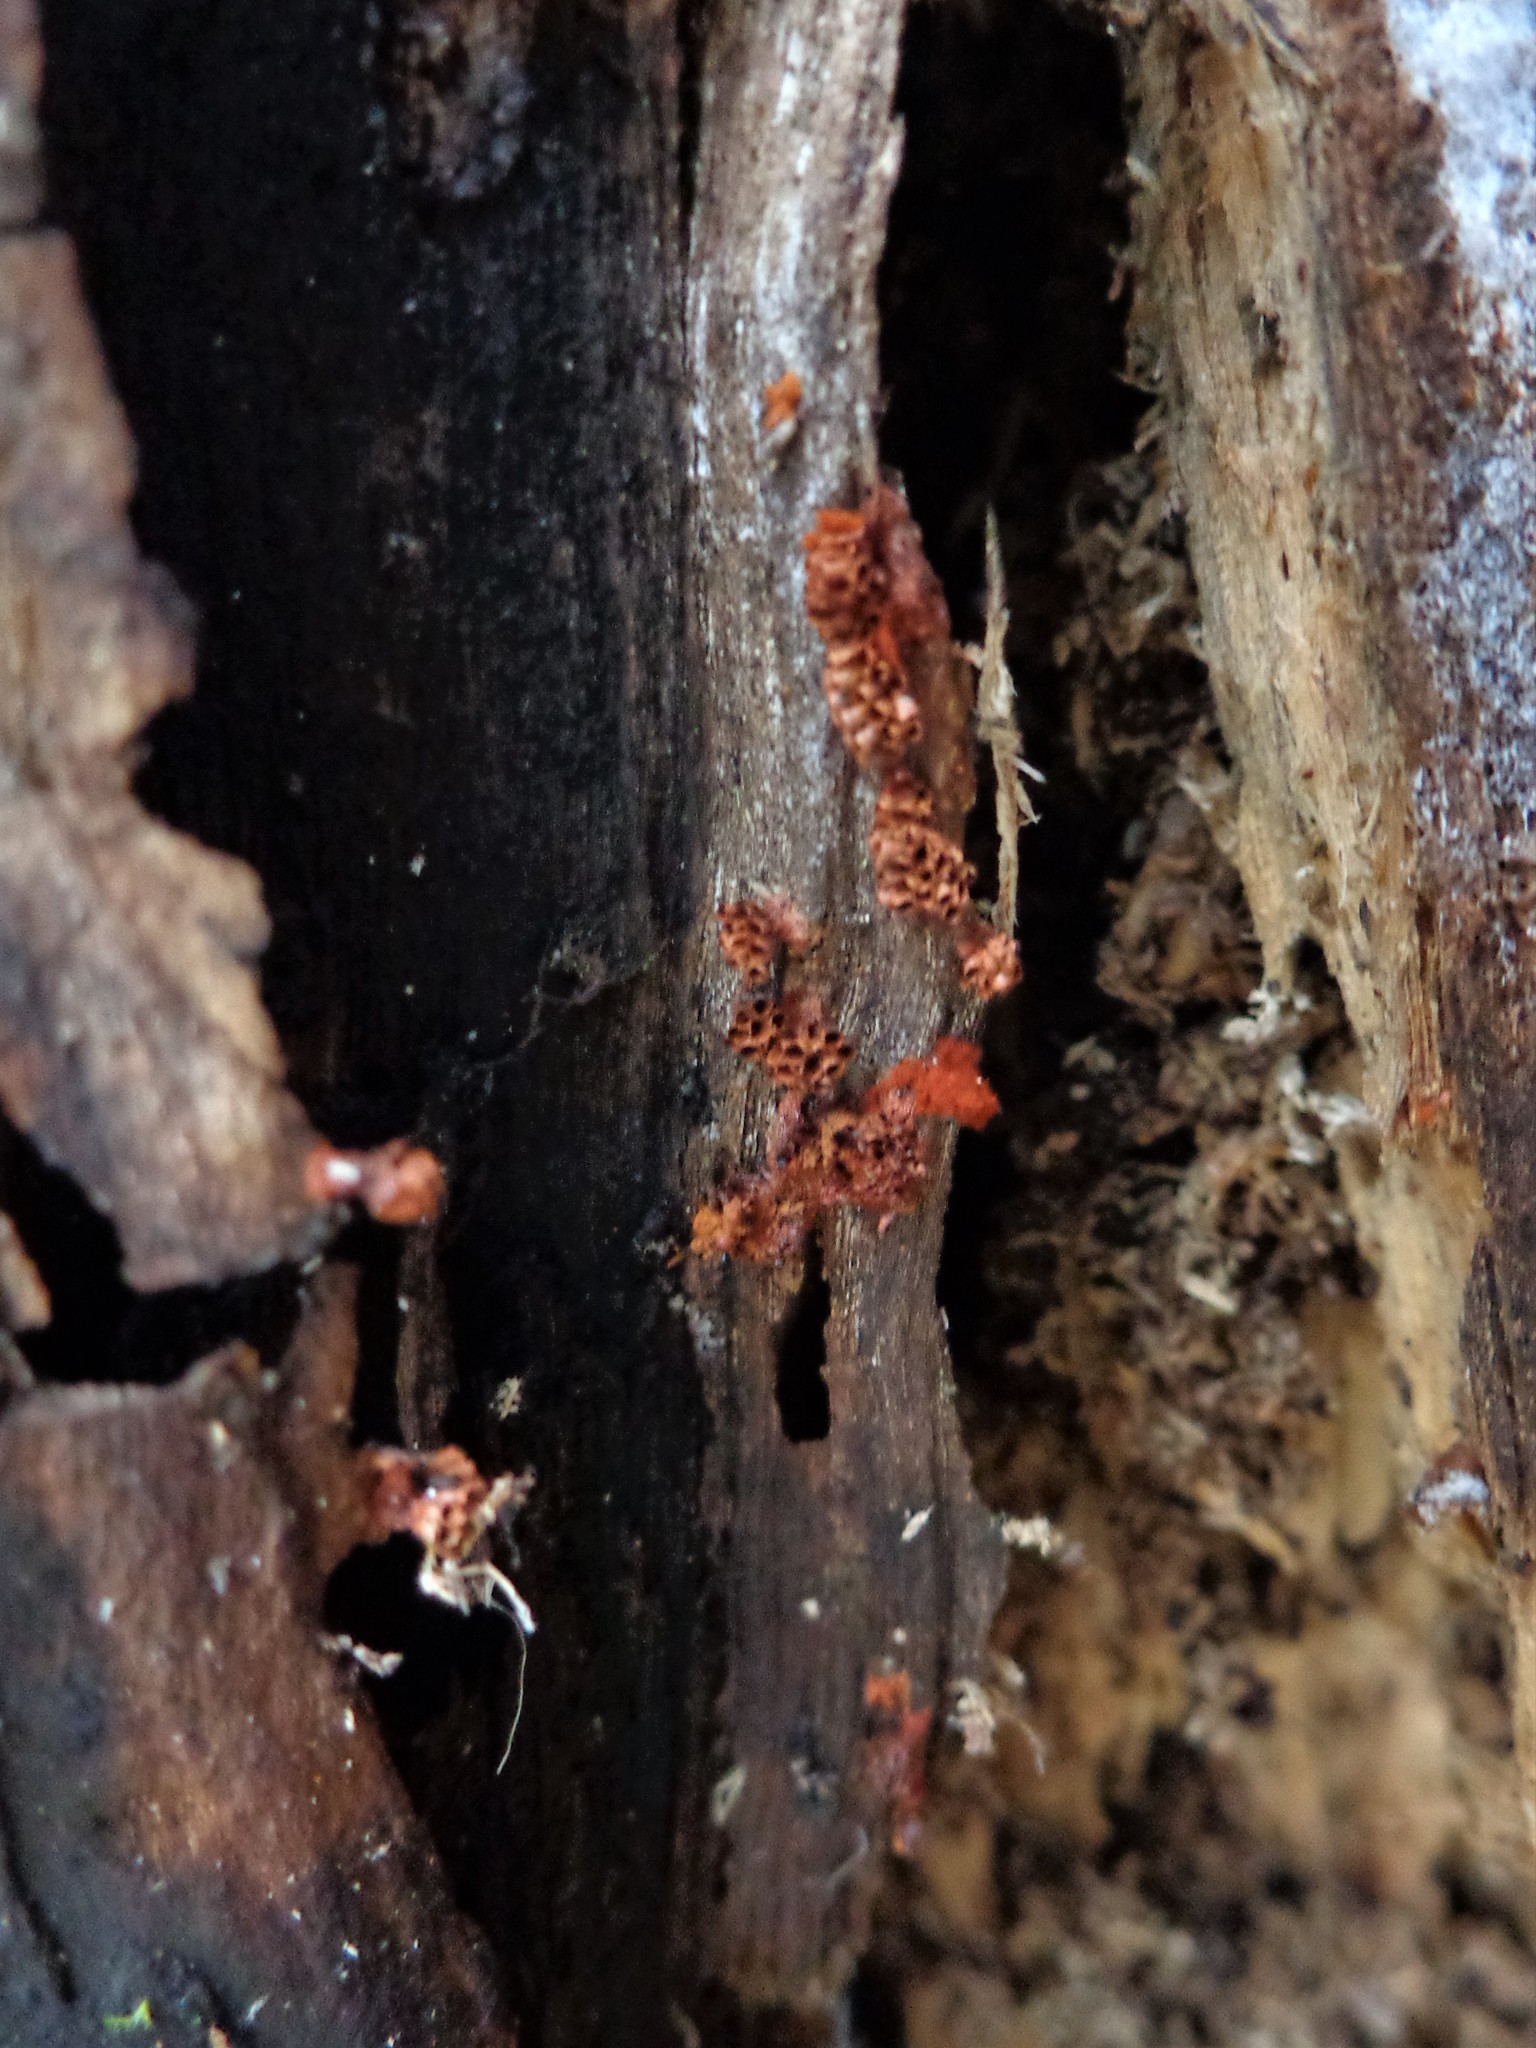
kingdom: Protozoa
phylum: Mycetozoa
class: Myxomycetes
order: Trichiales
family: Trichiaceae
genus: Metatrichia
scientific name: Metatrichia vesparia
